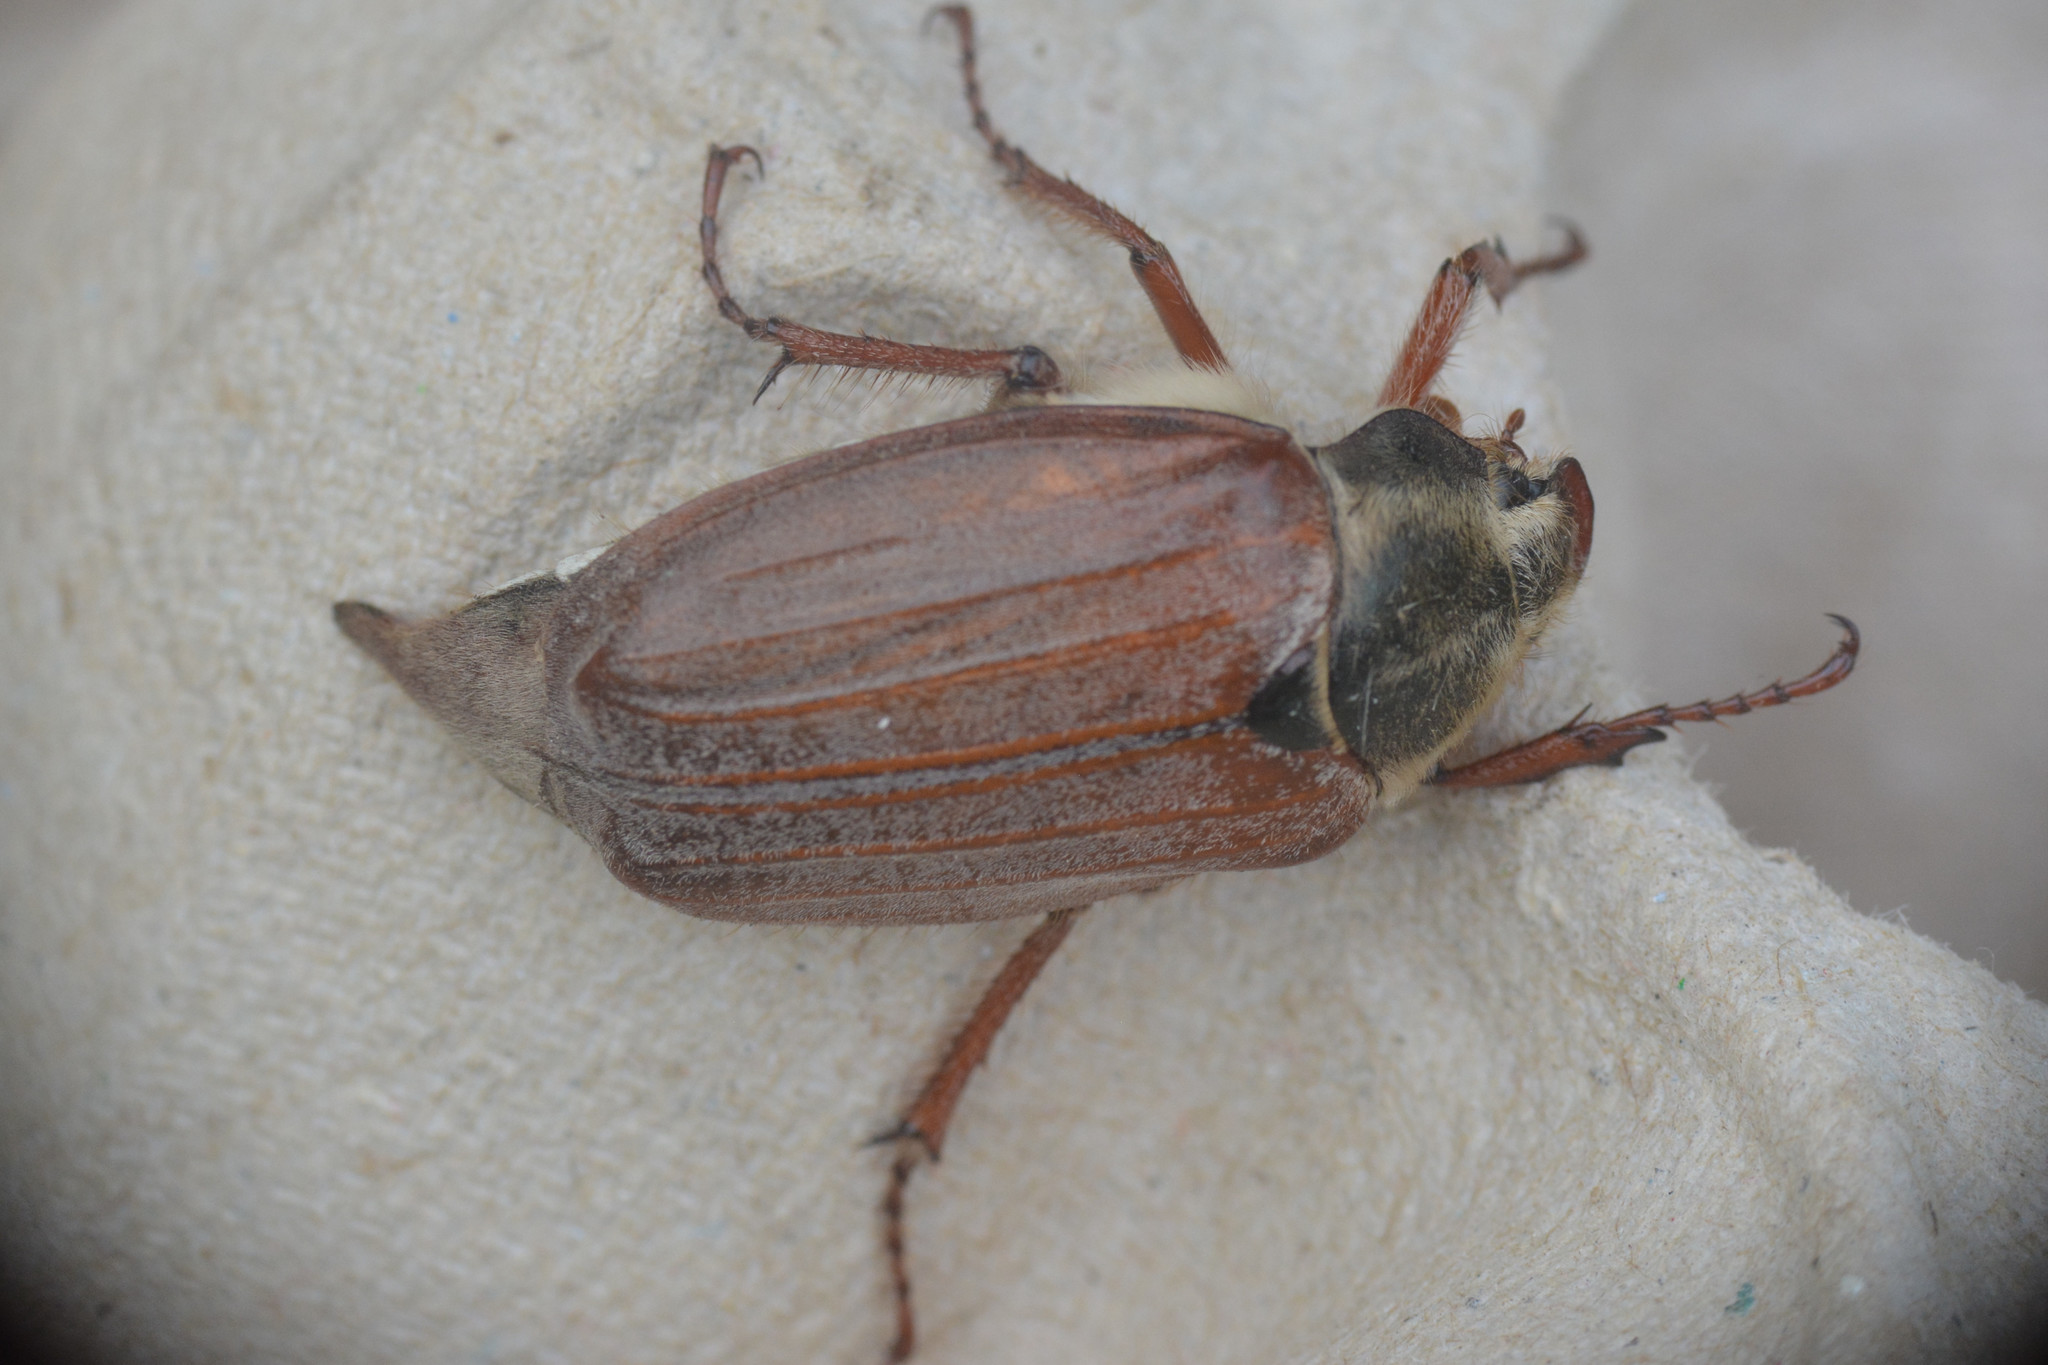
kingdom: Animalia
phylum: Arthropoda
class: Insecta
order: Coleoptera
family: Scarabaeidae
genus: Melolontha
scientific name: Melolontha melolontha
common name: Cockchafer maybeetle
